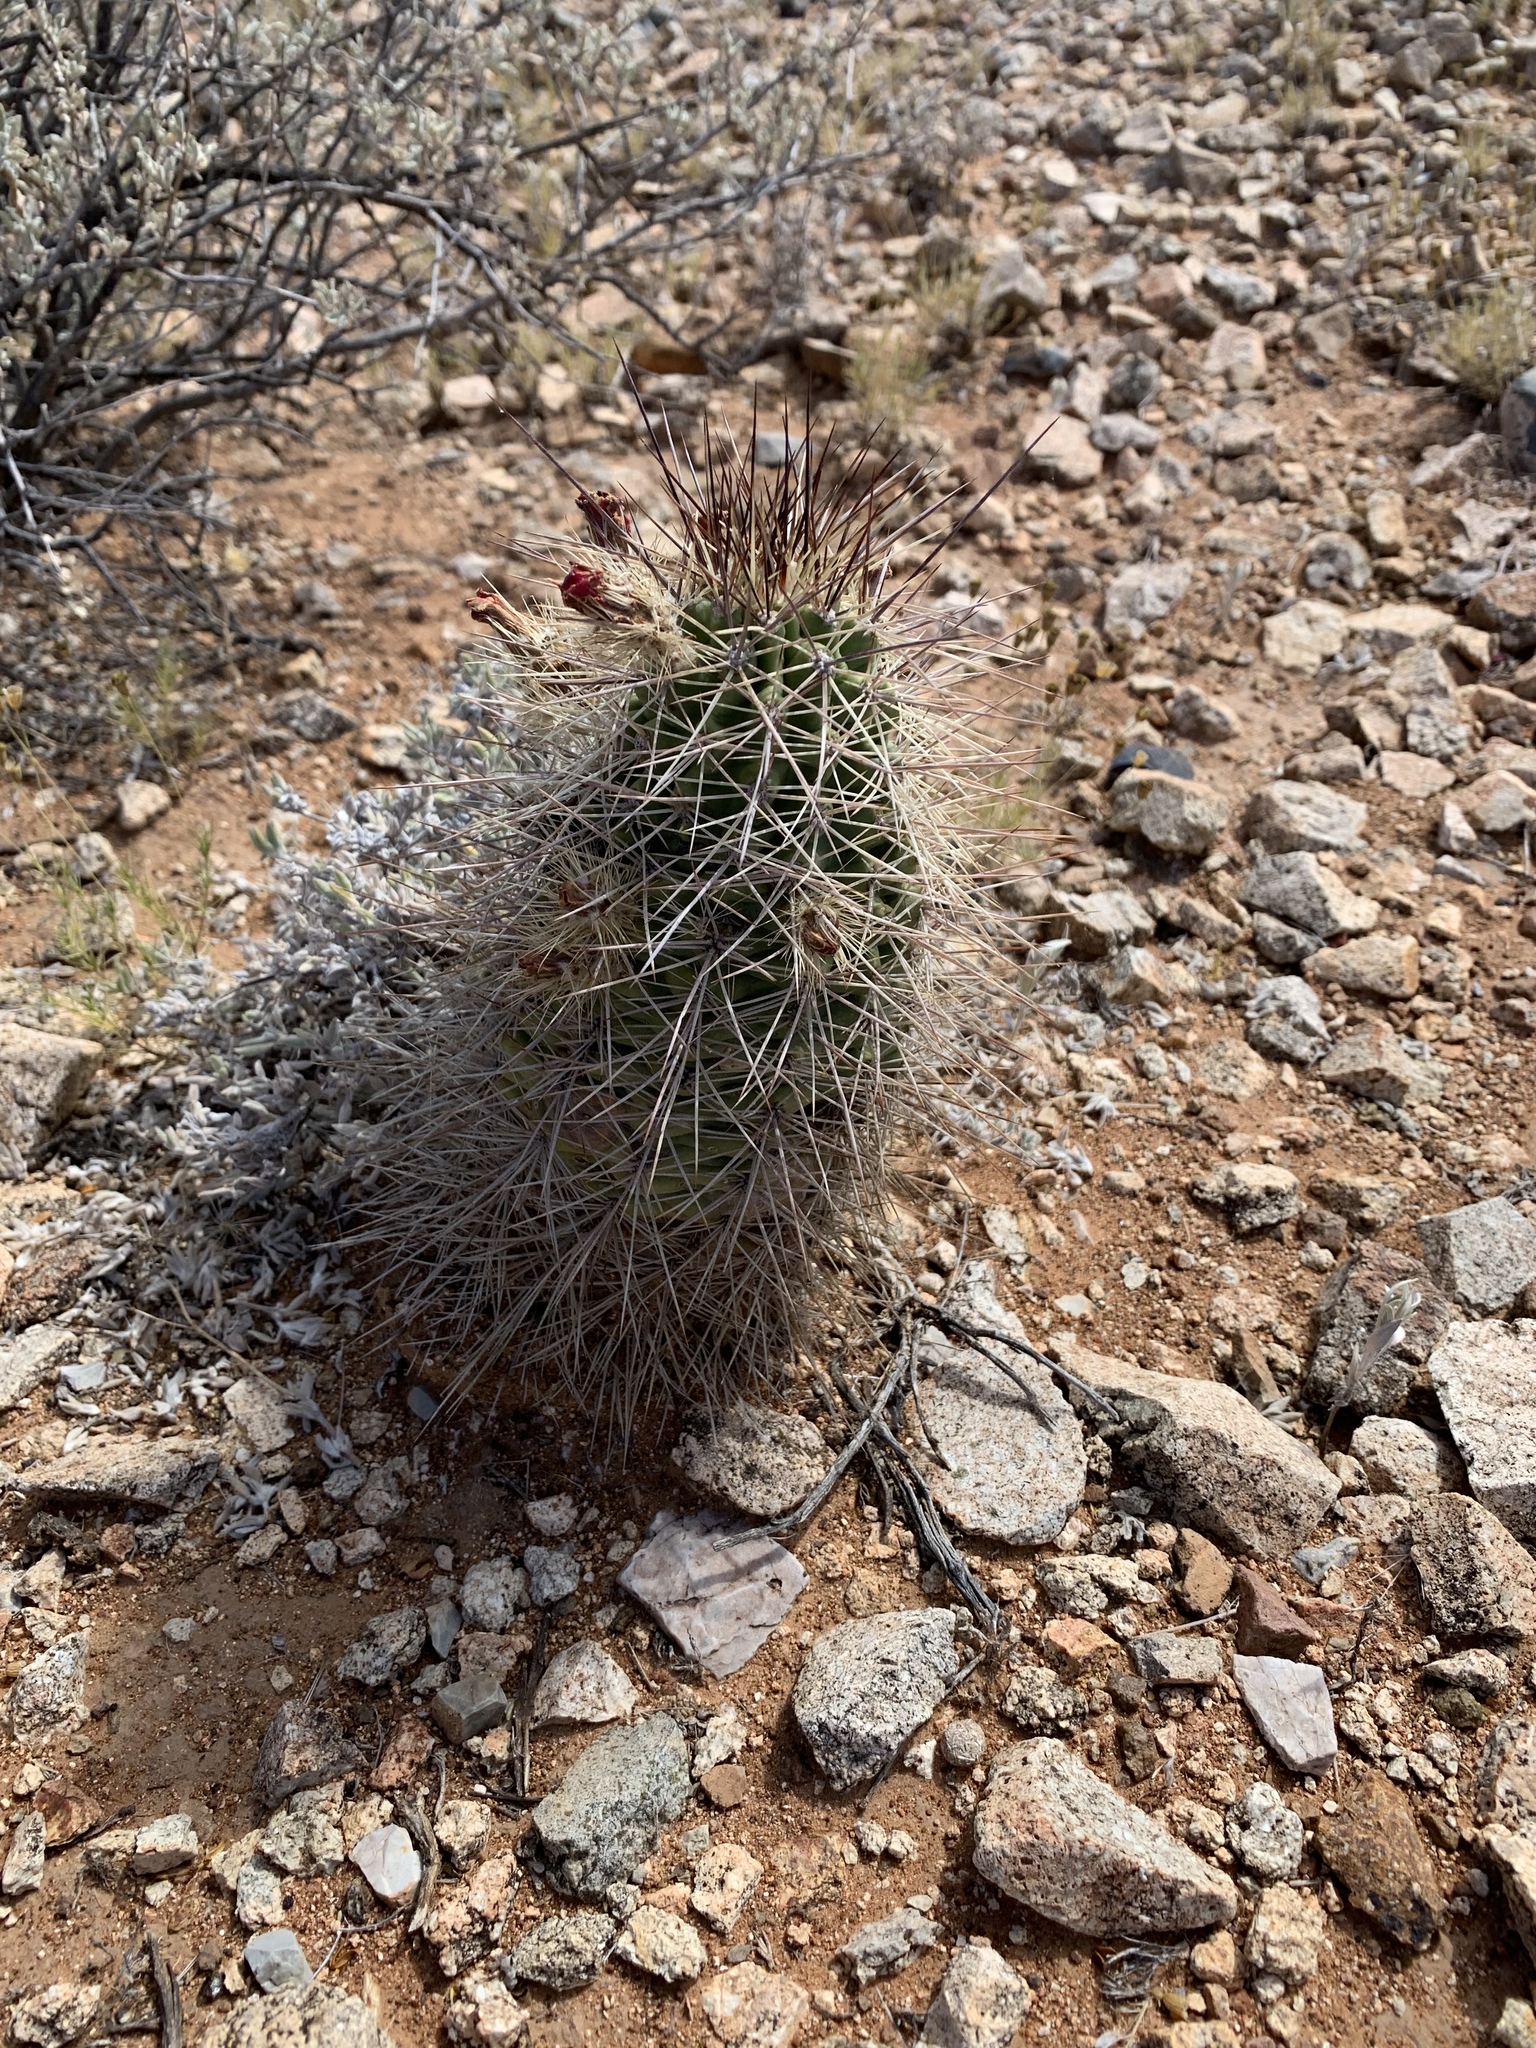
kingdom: Plantae
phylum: Tracheophyta
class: Magnoliopsida
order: Caryophyllales
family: Cactaceae
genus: Echinocereus
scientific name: Echinocereus coccineus
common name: Scarlet hedgehog cactus
